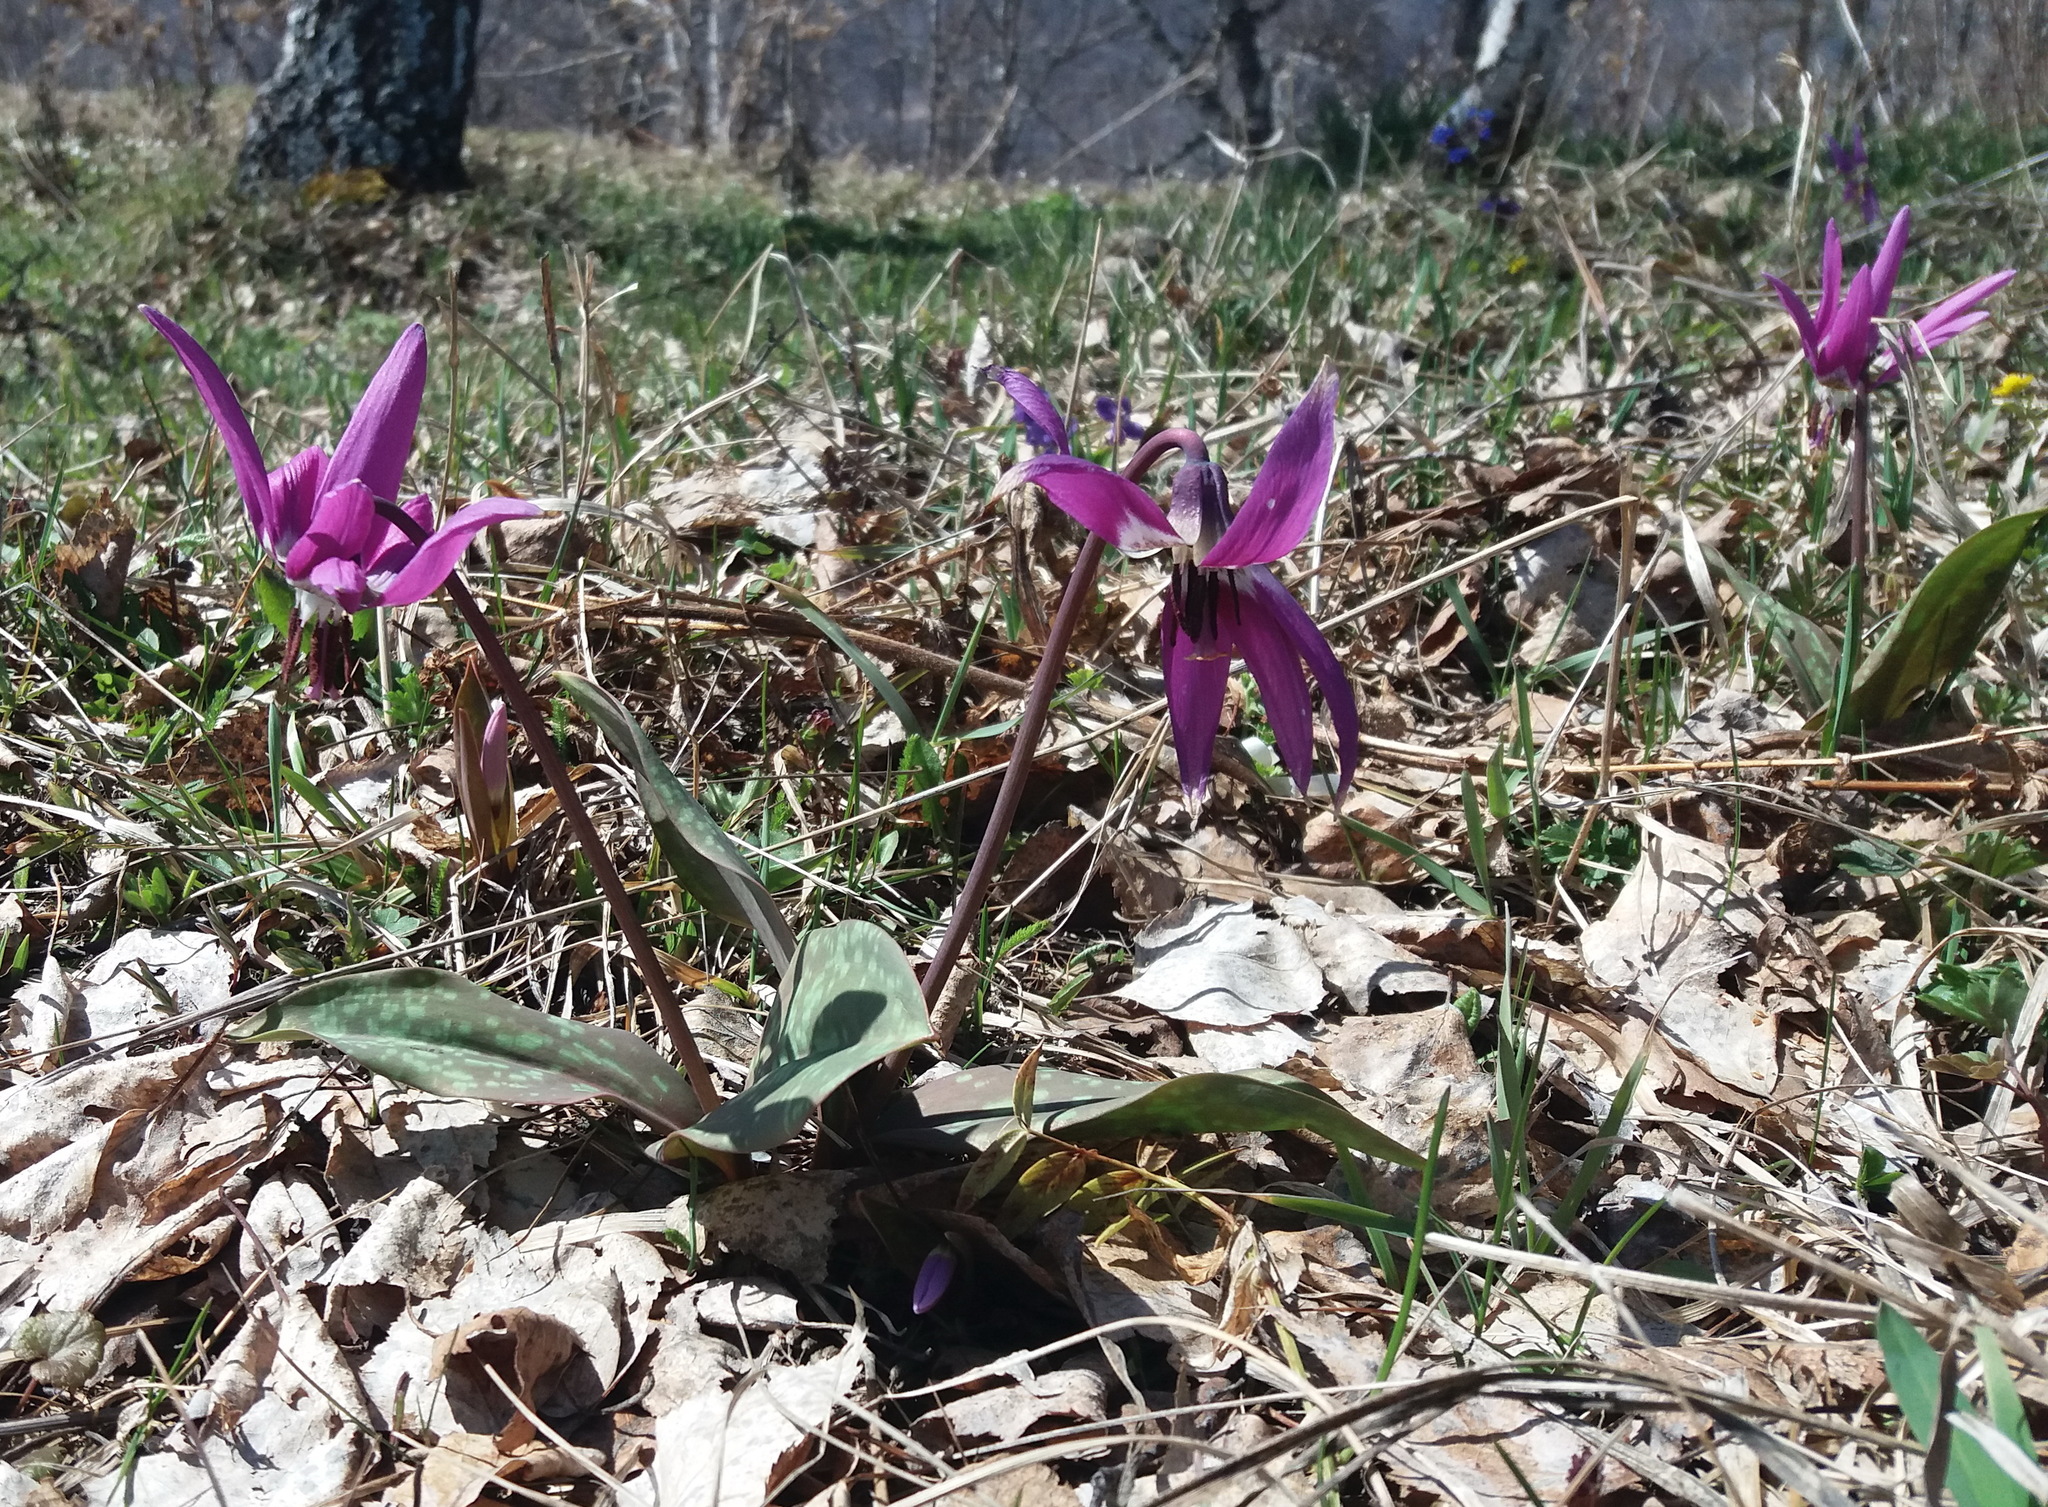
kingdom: Plantae
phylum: Tracheophyta
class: Liliopsida
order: Liliales
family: Liliaceae
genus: Erythronium
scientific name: Erythronium sulevii
